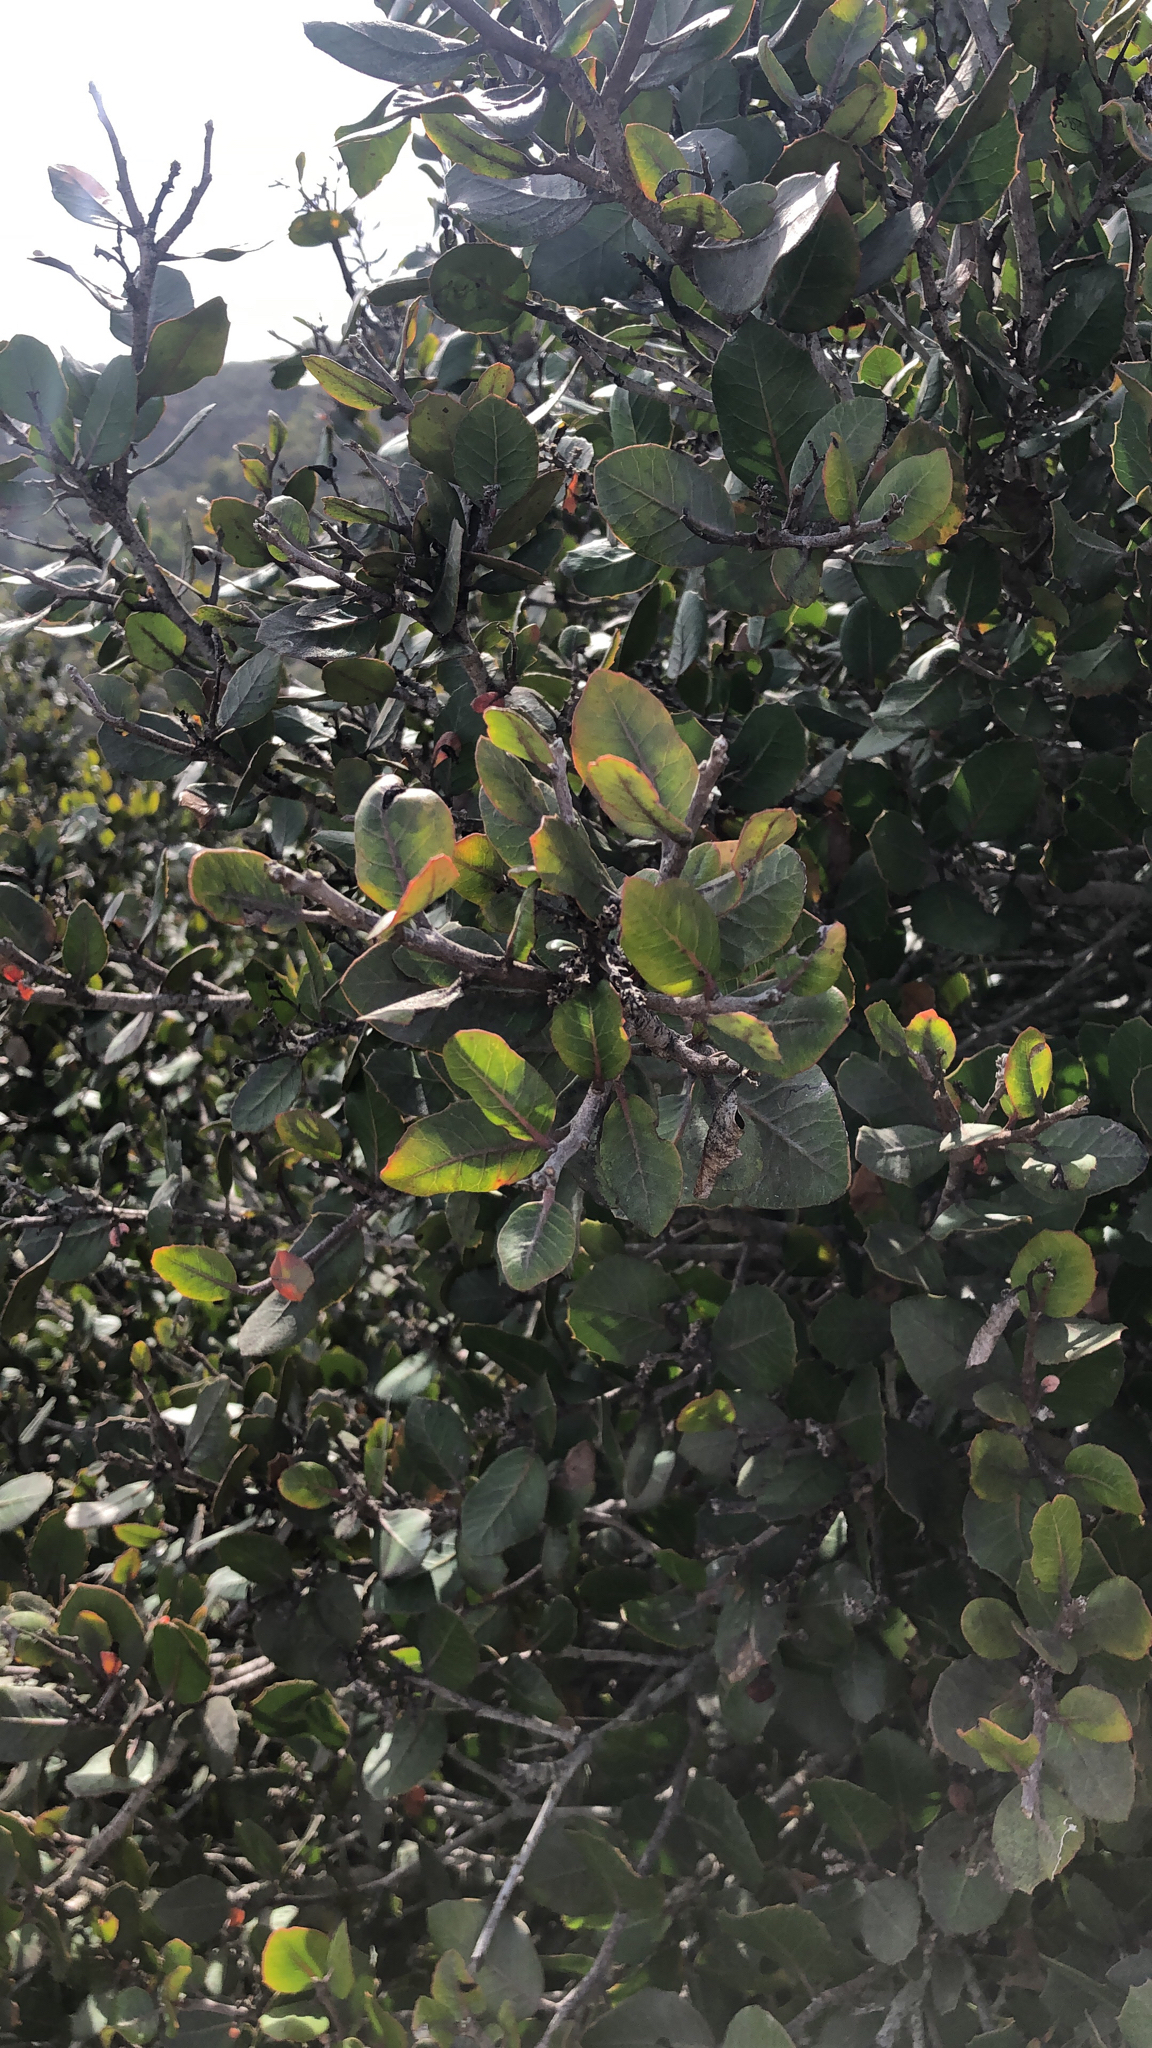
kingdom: Plantae
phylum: Tracheophyta
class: Magnoliopsida
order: Sapindales
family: Anacardiaceae
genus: Rhus
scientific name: Rhus integrifolia
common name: Lemonade sumac
